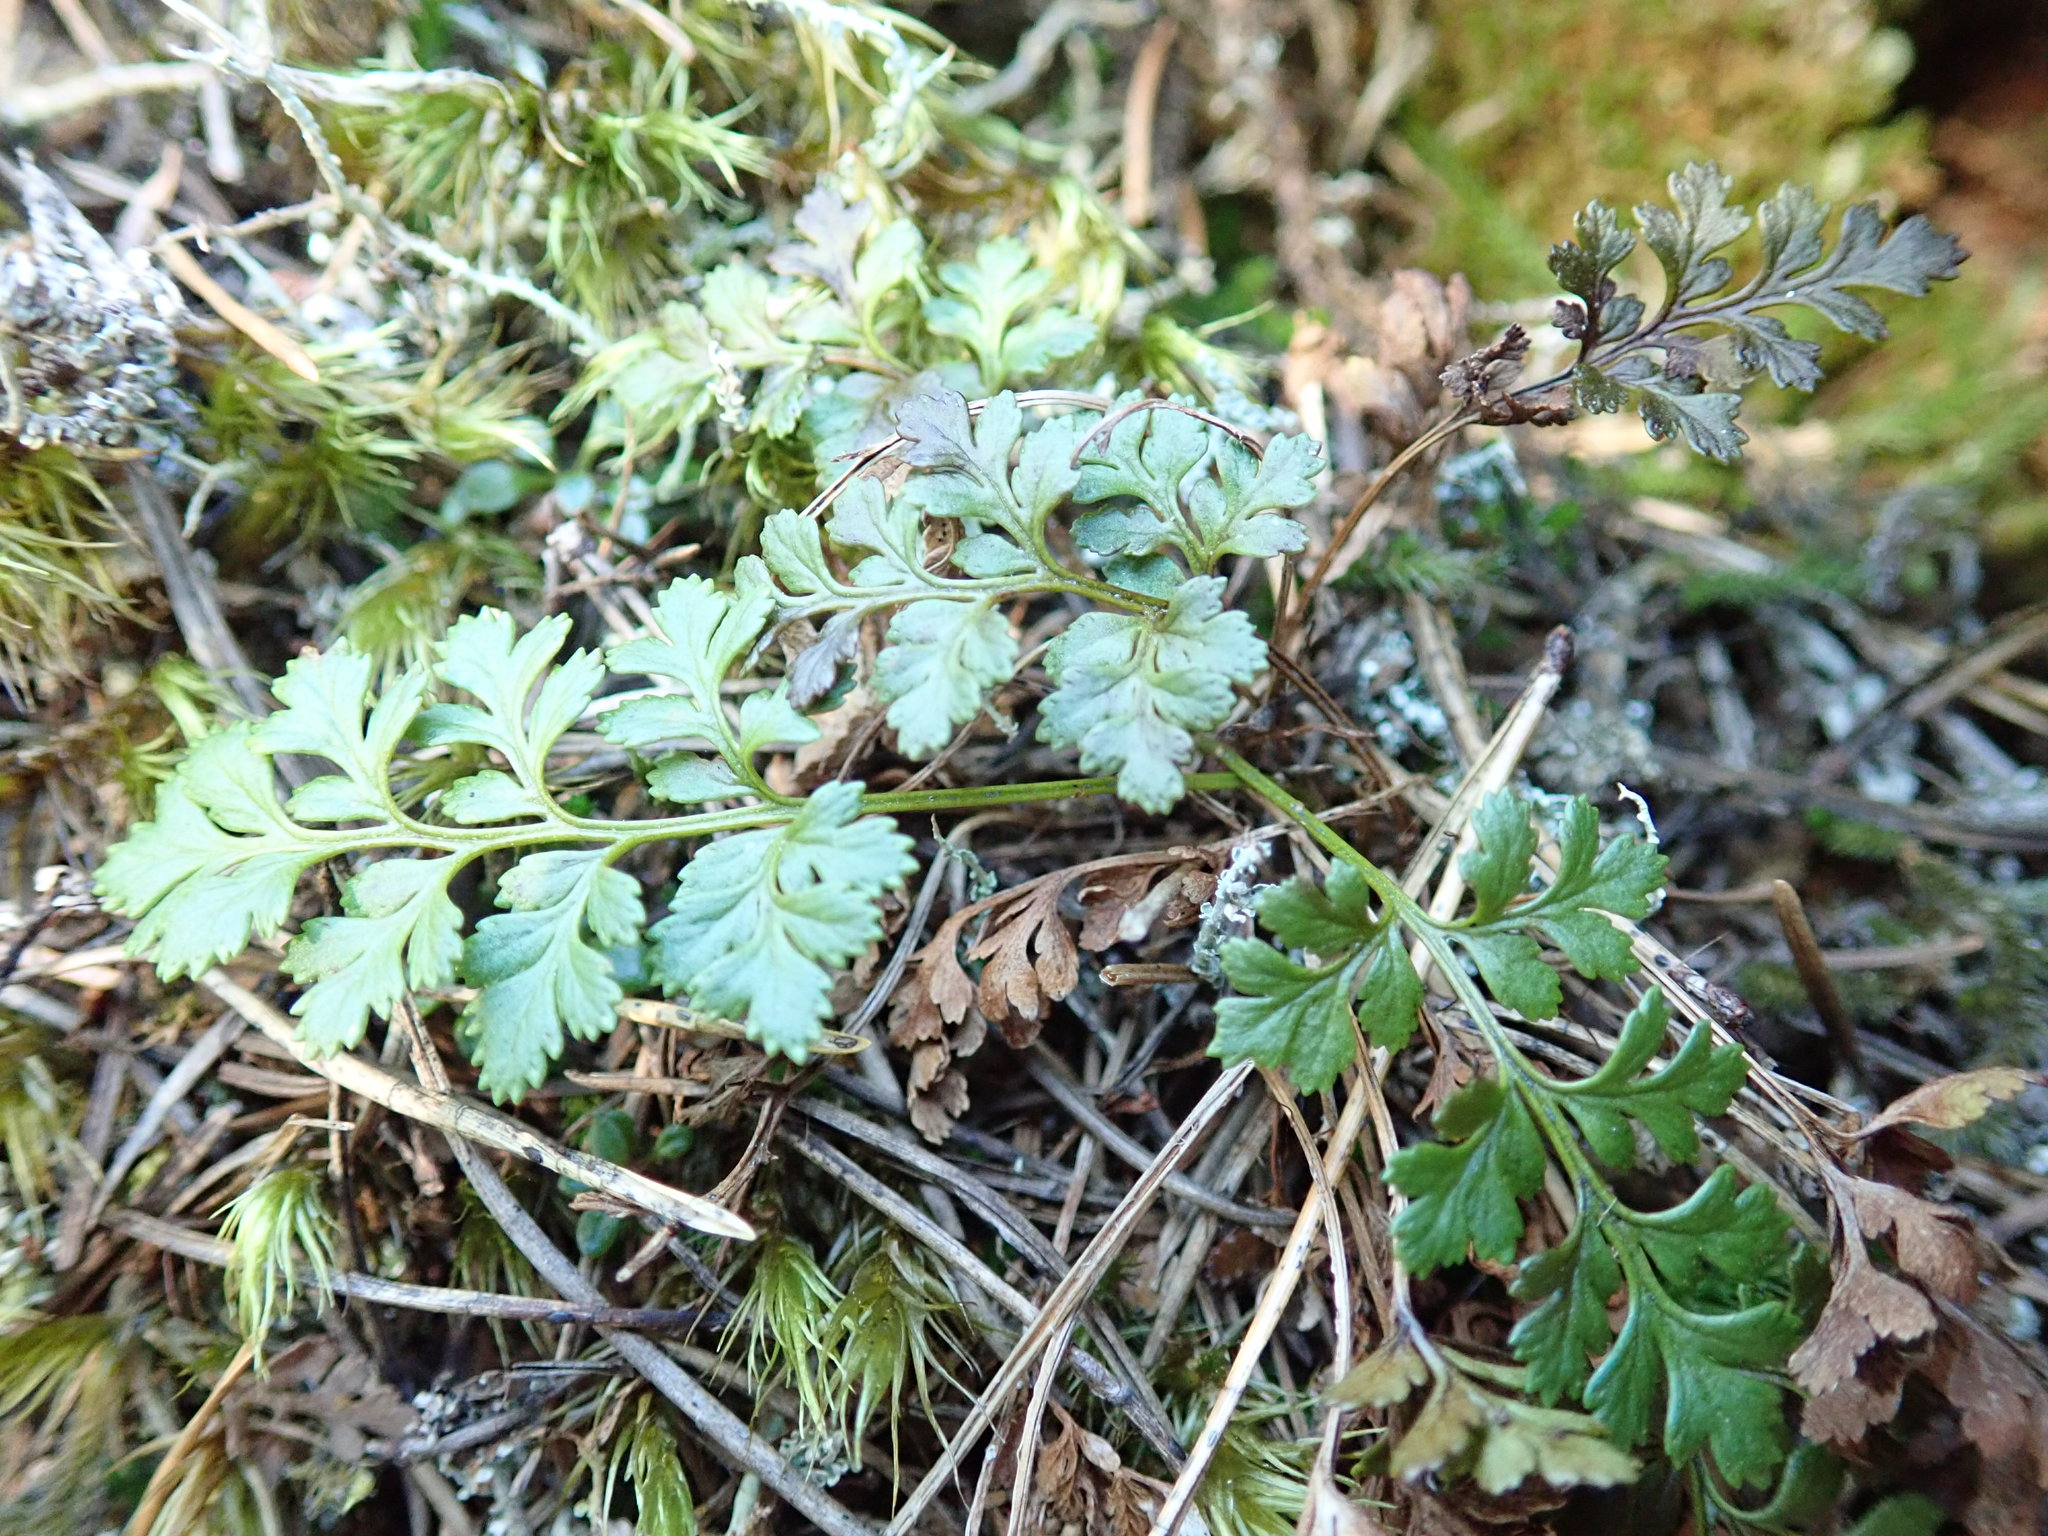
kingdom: Plantae
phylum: Tracheophyta
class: Polypodiopsida
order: Polypodiales
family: Pteridaceae
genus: Cryptogramma
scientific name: Cryptogramma acrostichoides
